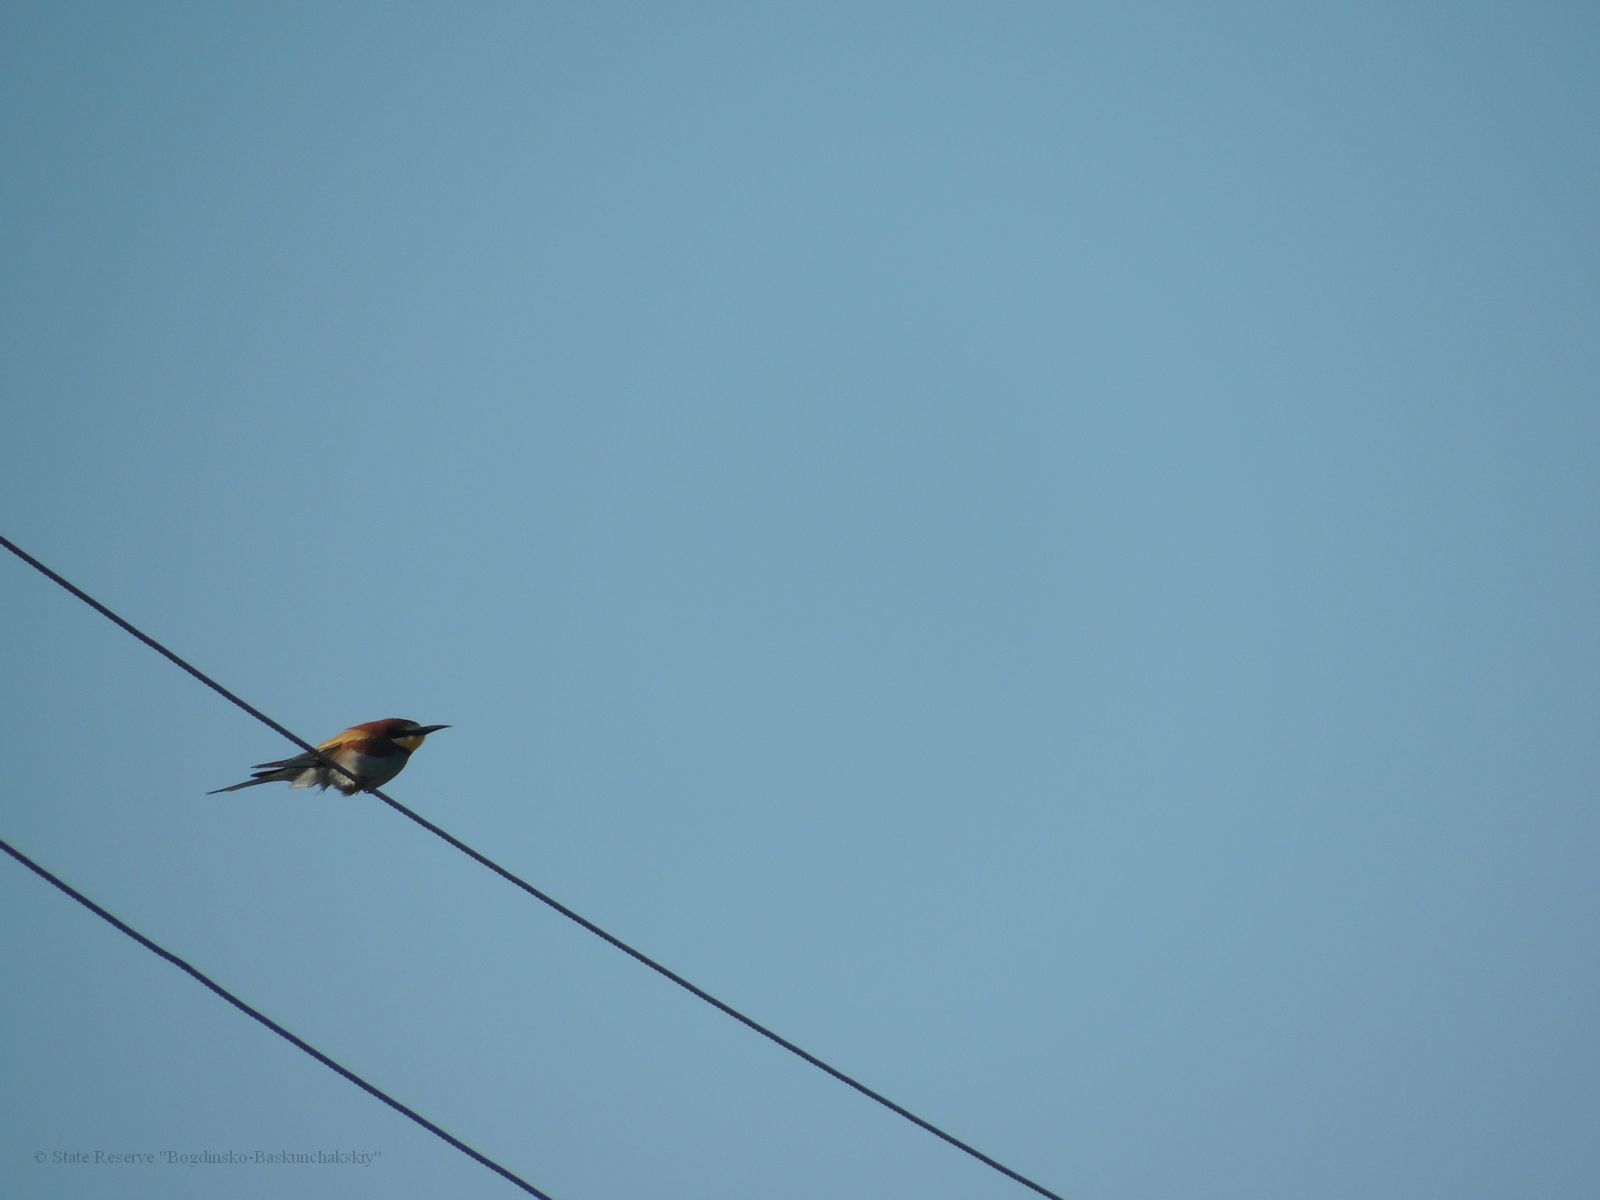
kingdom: Animalia
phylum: Chordata
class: Aves
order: Coraciiformes
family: Meropidae
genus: Merops
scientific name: Merops apiaster
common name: European bee-eater
